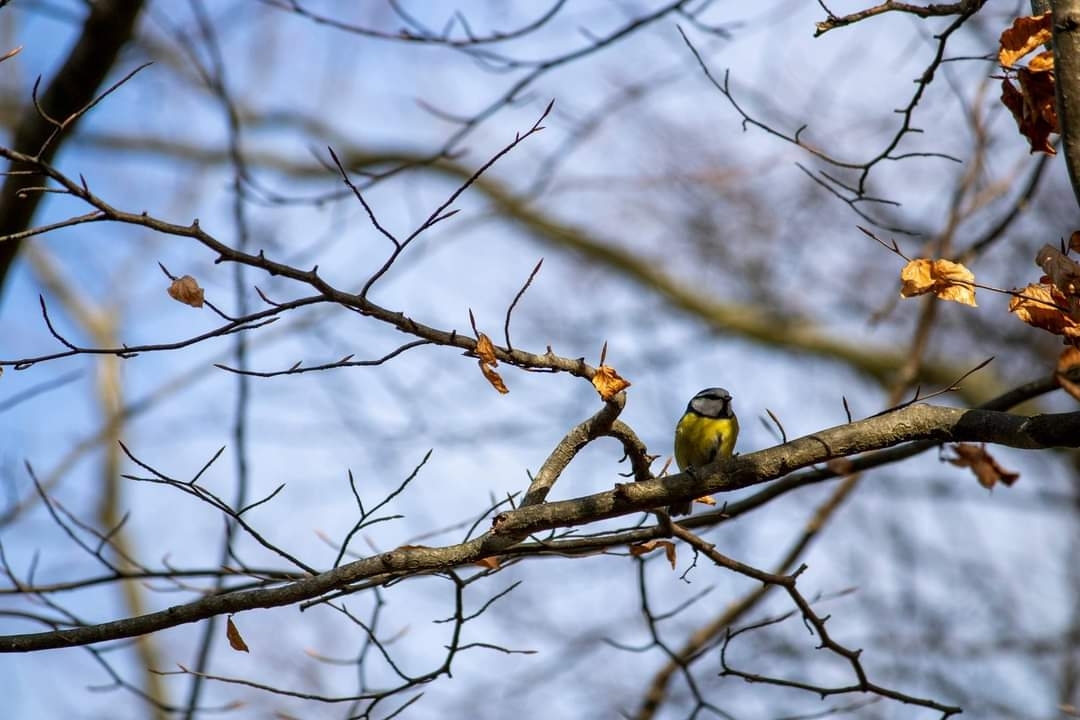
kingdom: Animalia
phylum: Chordata
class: Aves
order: Passeriformes
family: Paridae
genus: Cyanistes
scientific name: Cyanistes caeruleus
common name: Eurasian blue tit
